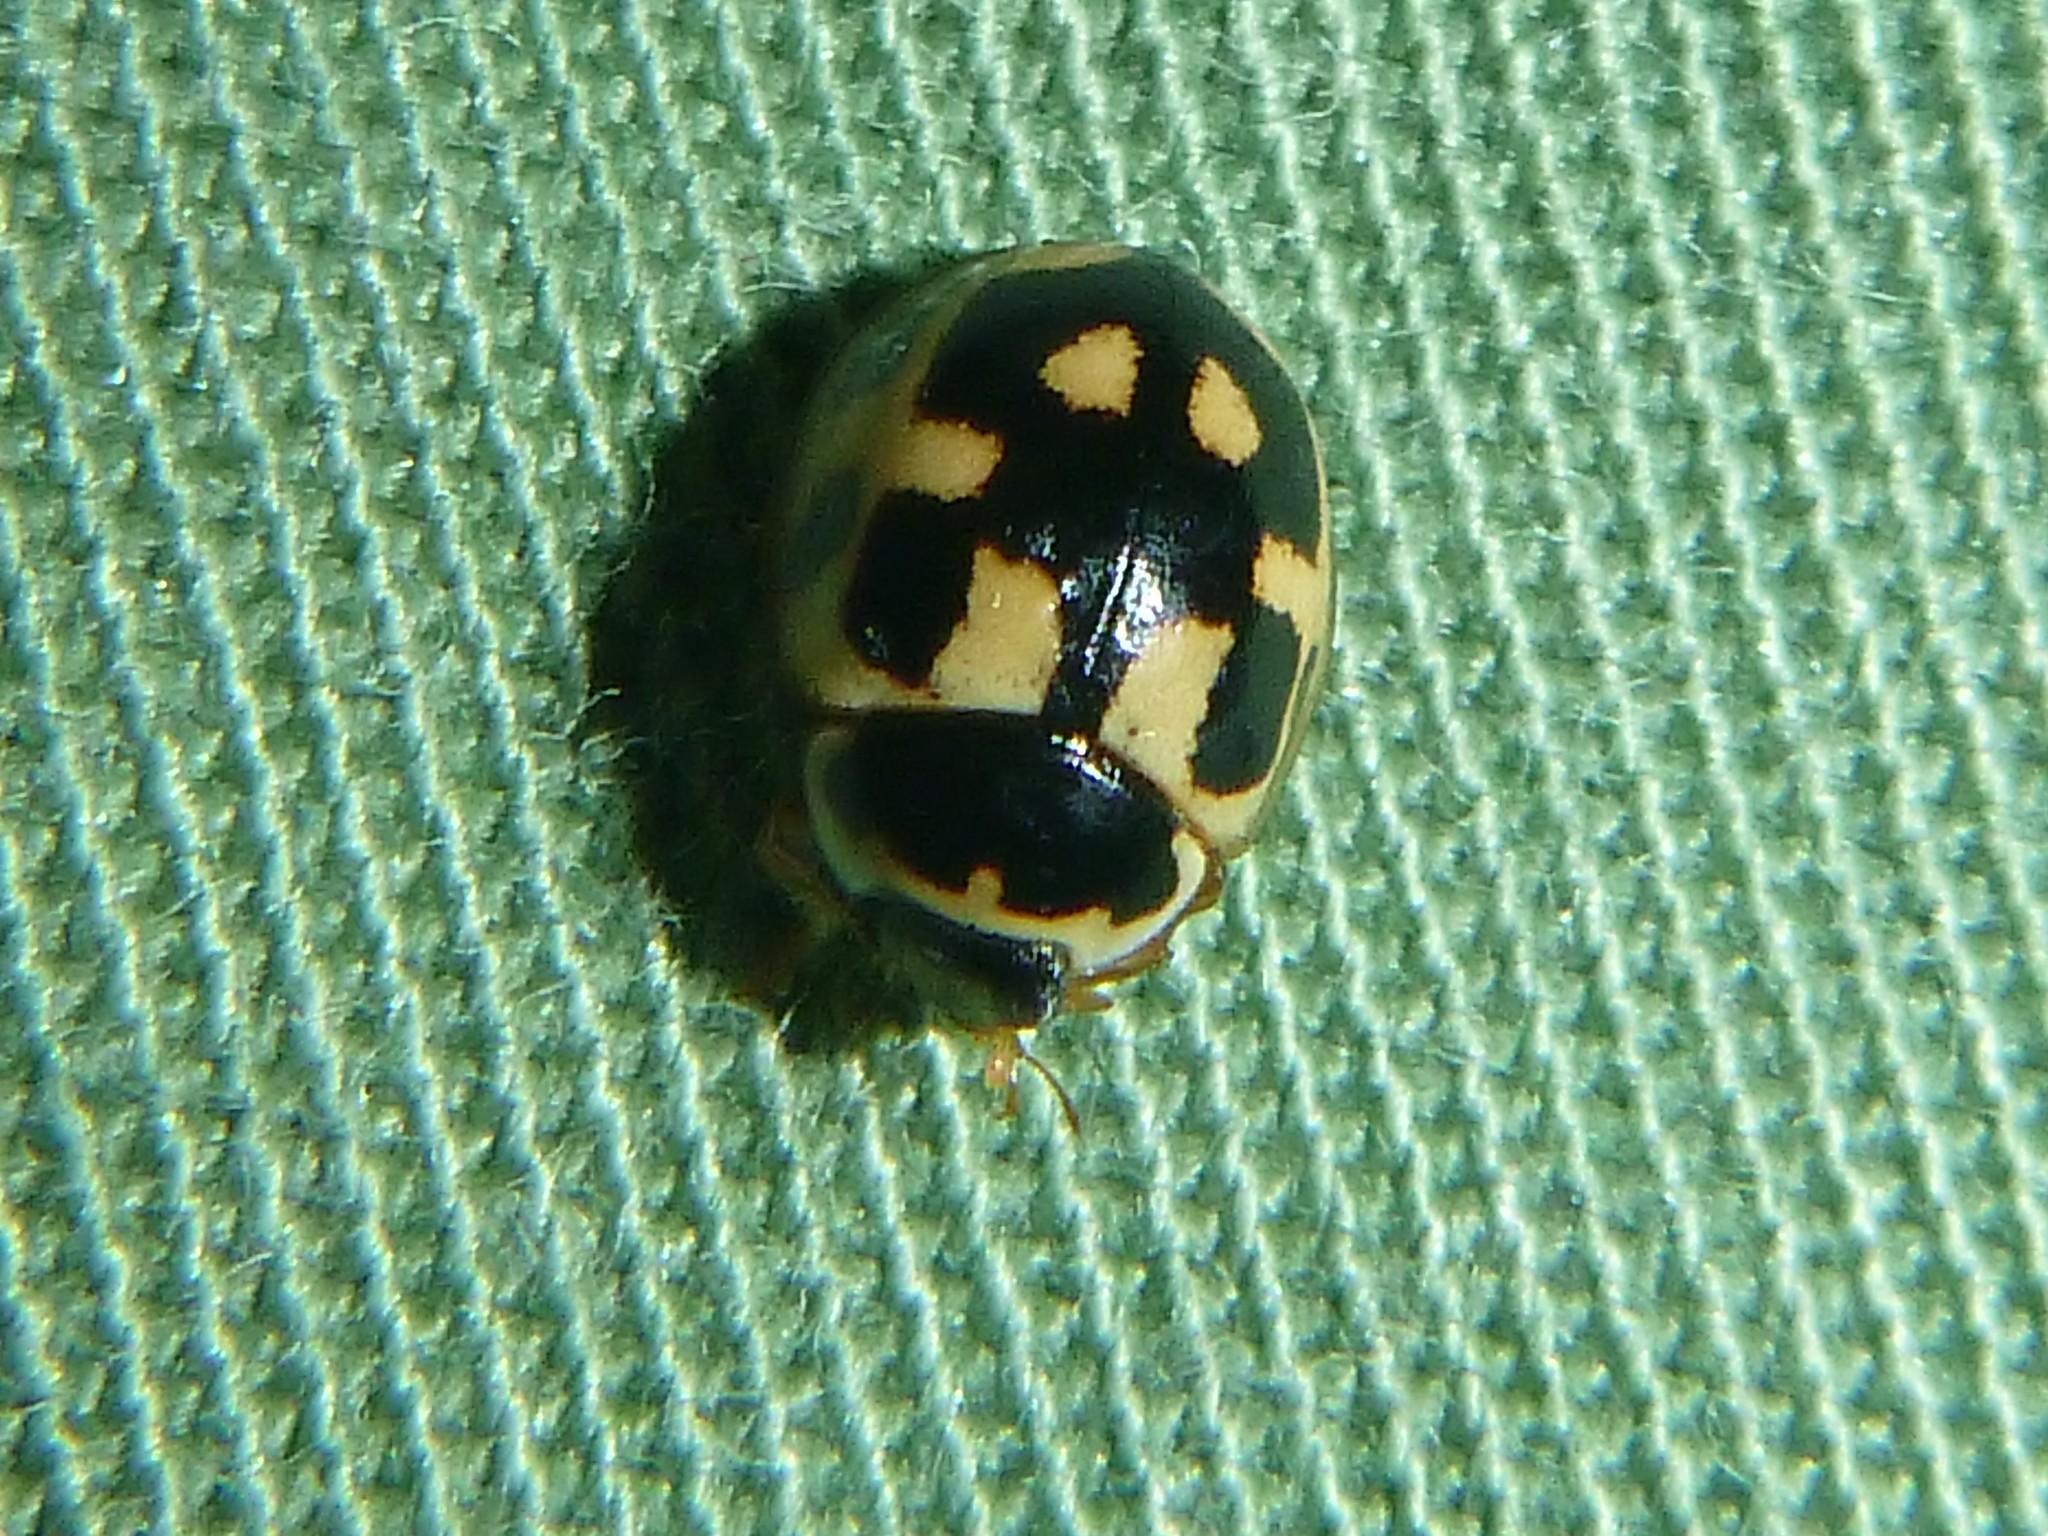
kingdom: Animalia
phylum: Arthropoda
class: Insecta
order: Coleoptera
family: Coccinellidae
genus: Propylaea
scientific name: Propylaea quatuordecimpunctata
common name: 14-spotted ladybird beetle
